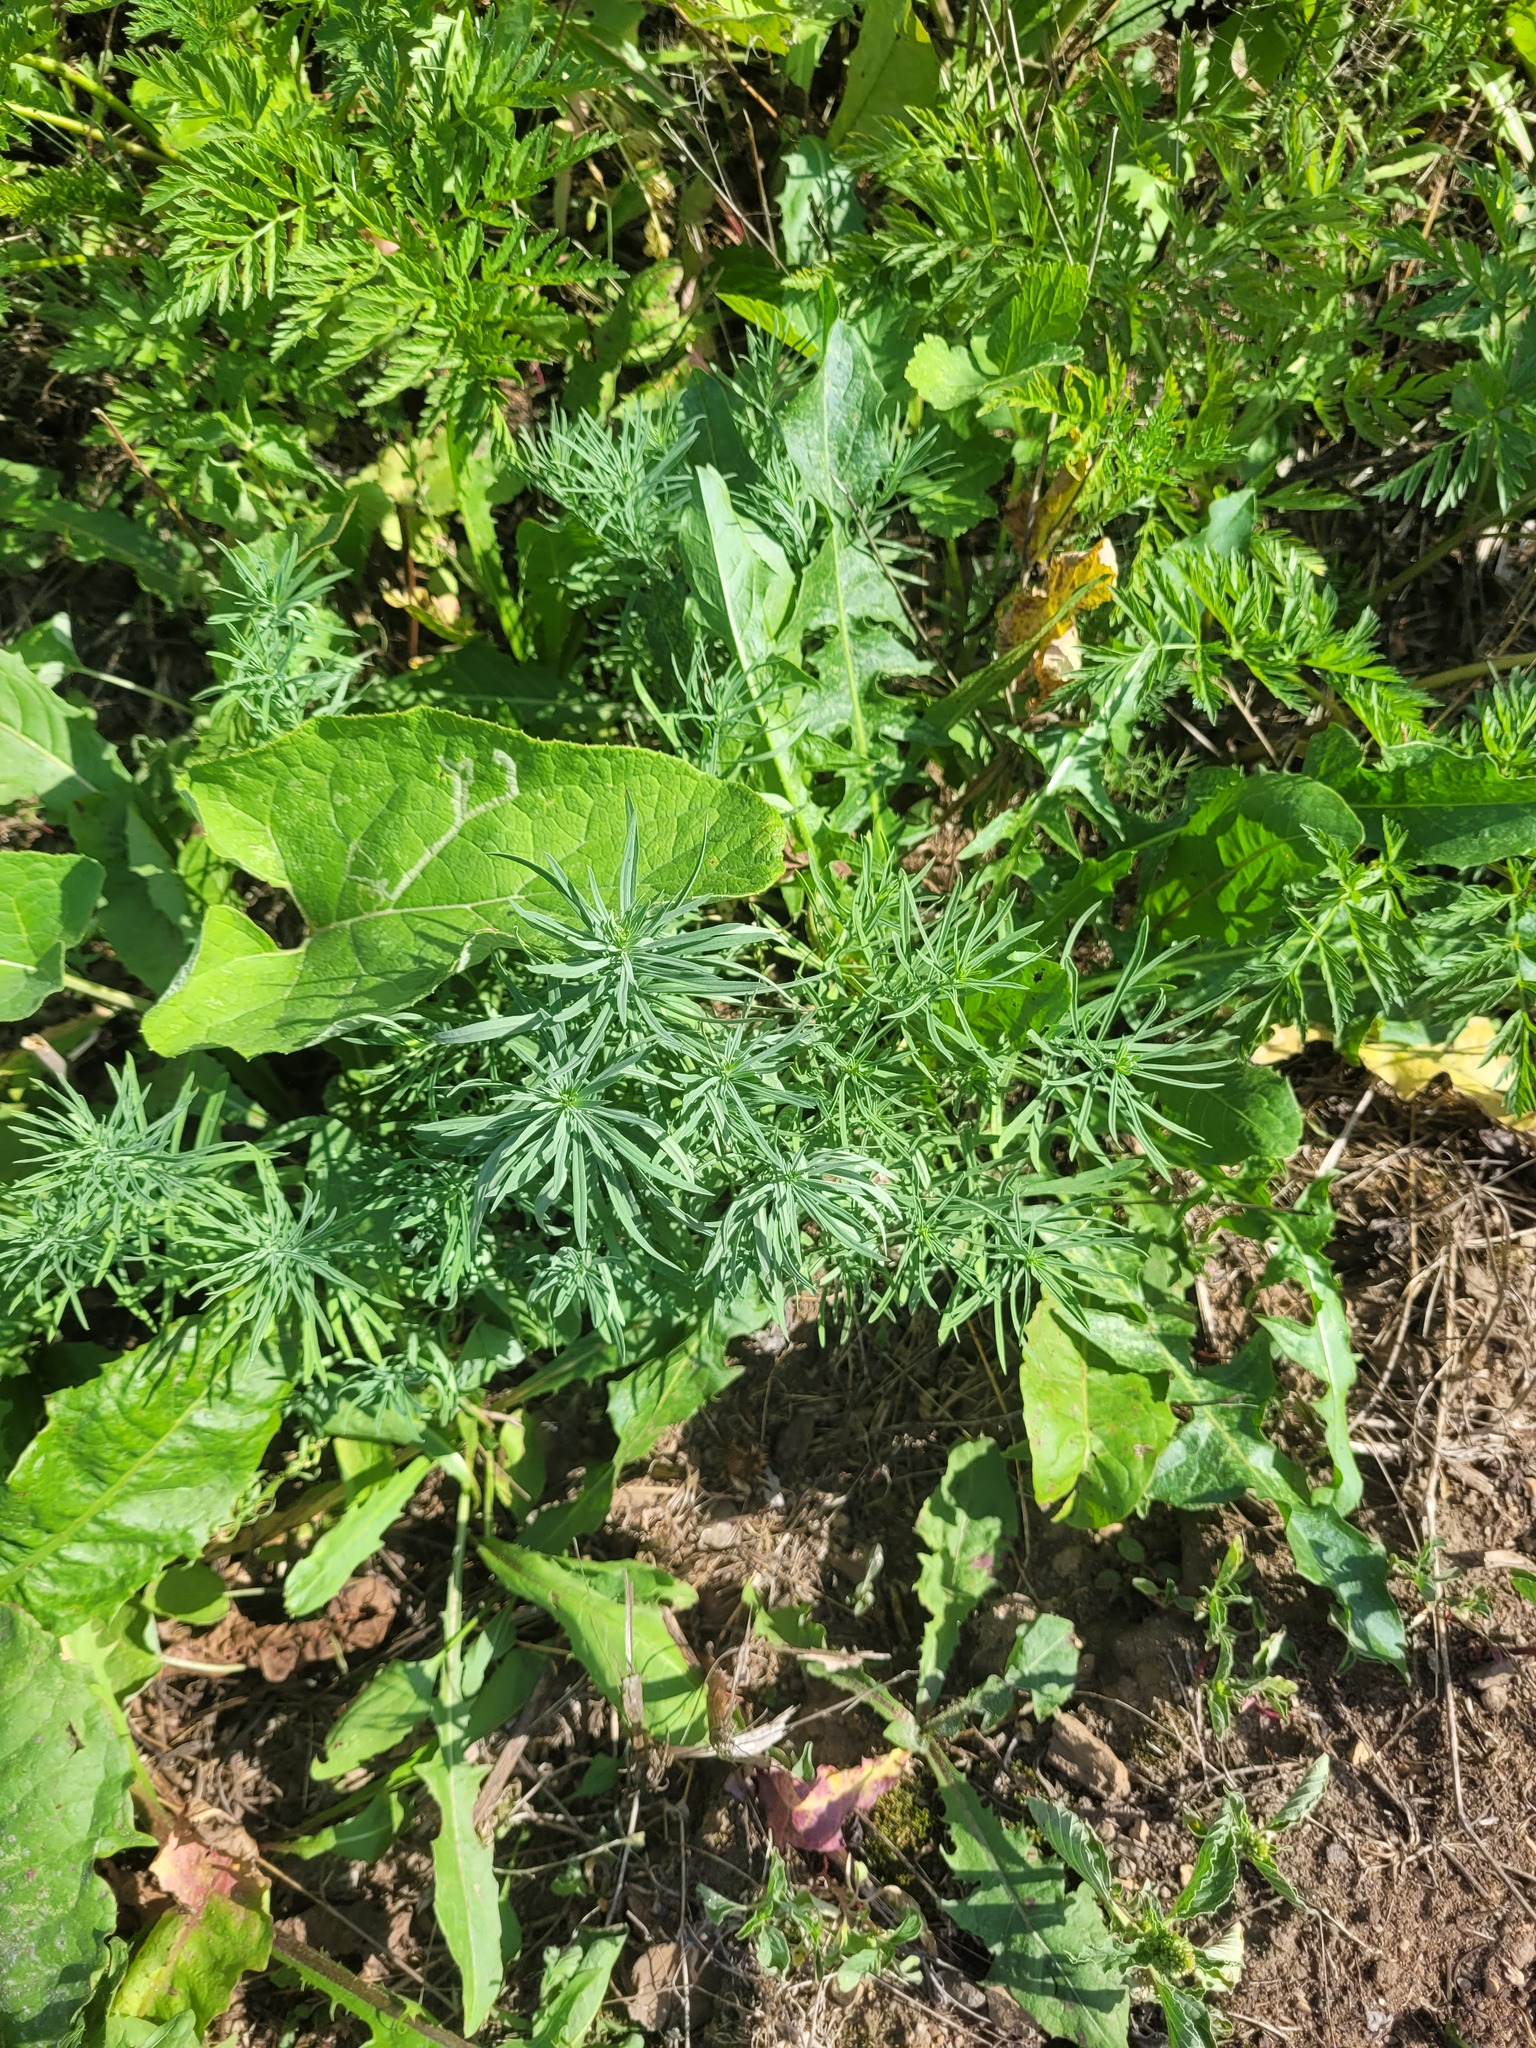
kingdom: Plantae
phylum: Tracheophyta
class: Magnoliopsida
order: Lamiales
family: Plantaginaceae
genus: Linaria
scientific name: Linaria vulgaris
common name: Butter and eggs
